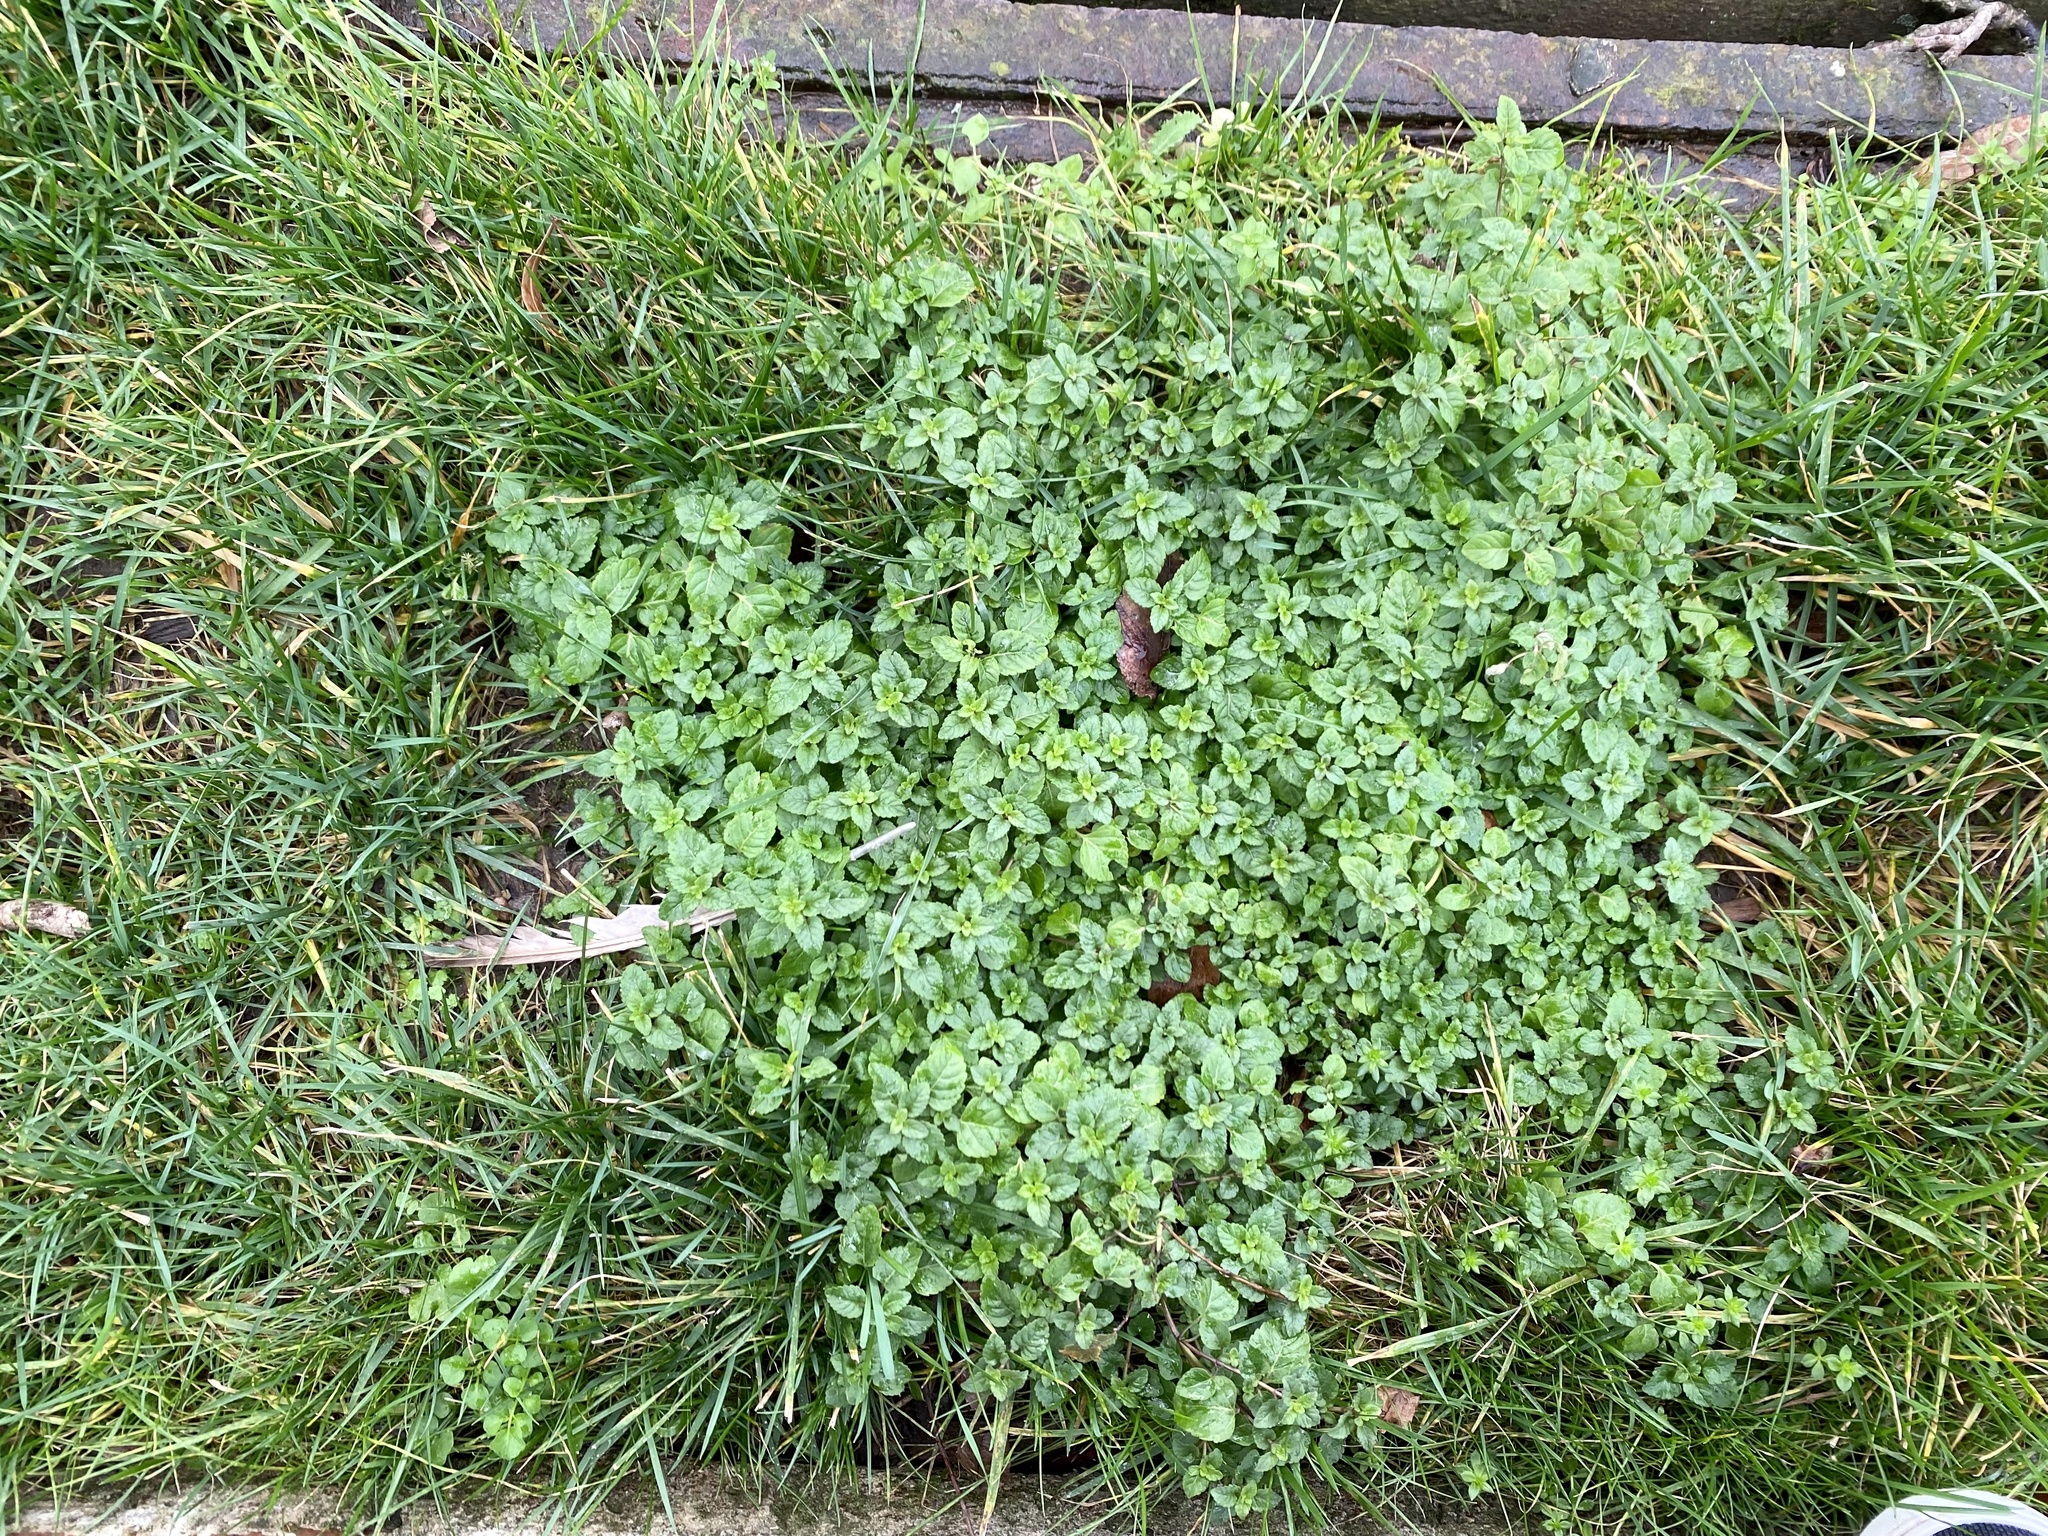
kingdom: Plantae
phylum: Tracheophyta
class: Magnoliopsida
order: Lamiales
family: Lamiaceae
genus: Clinopodium
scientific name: Clinopodium gracile
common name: Slender wild basil
